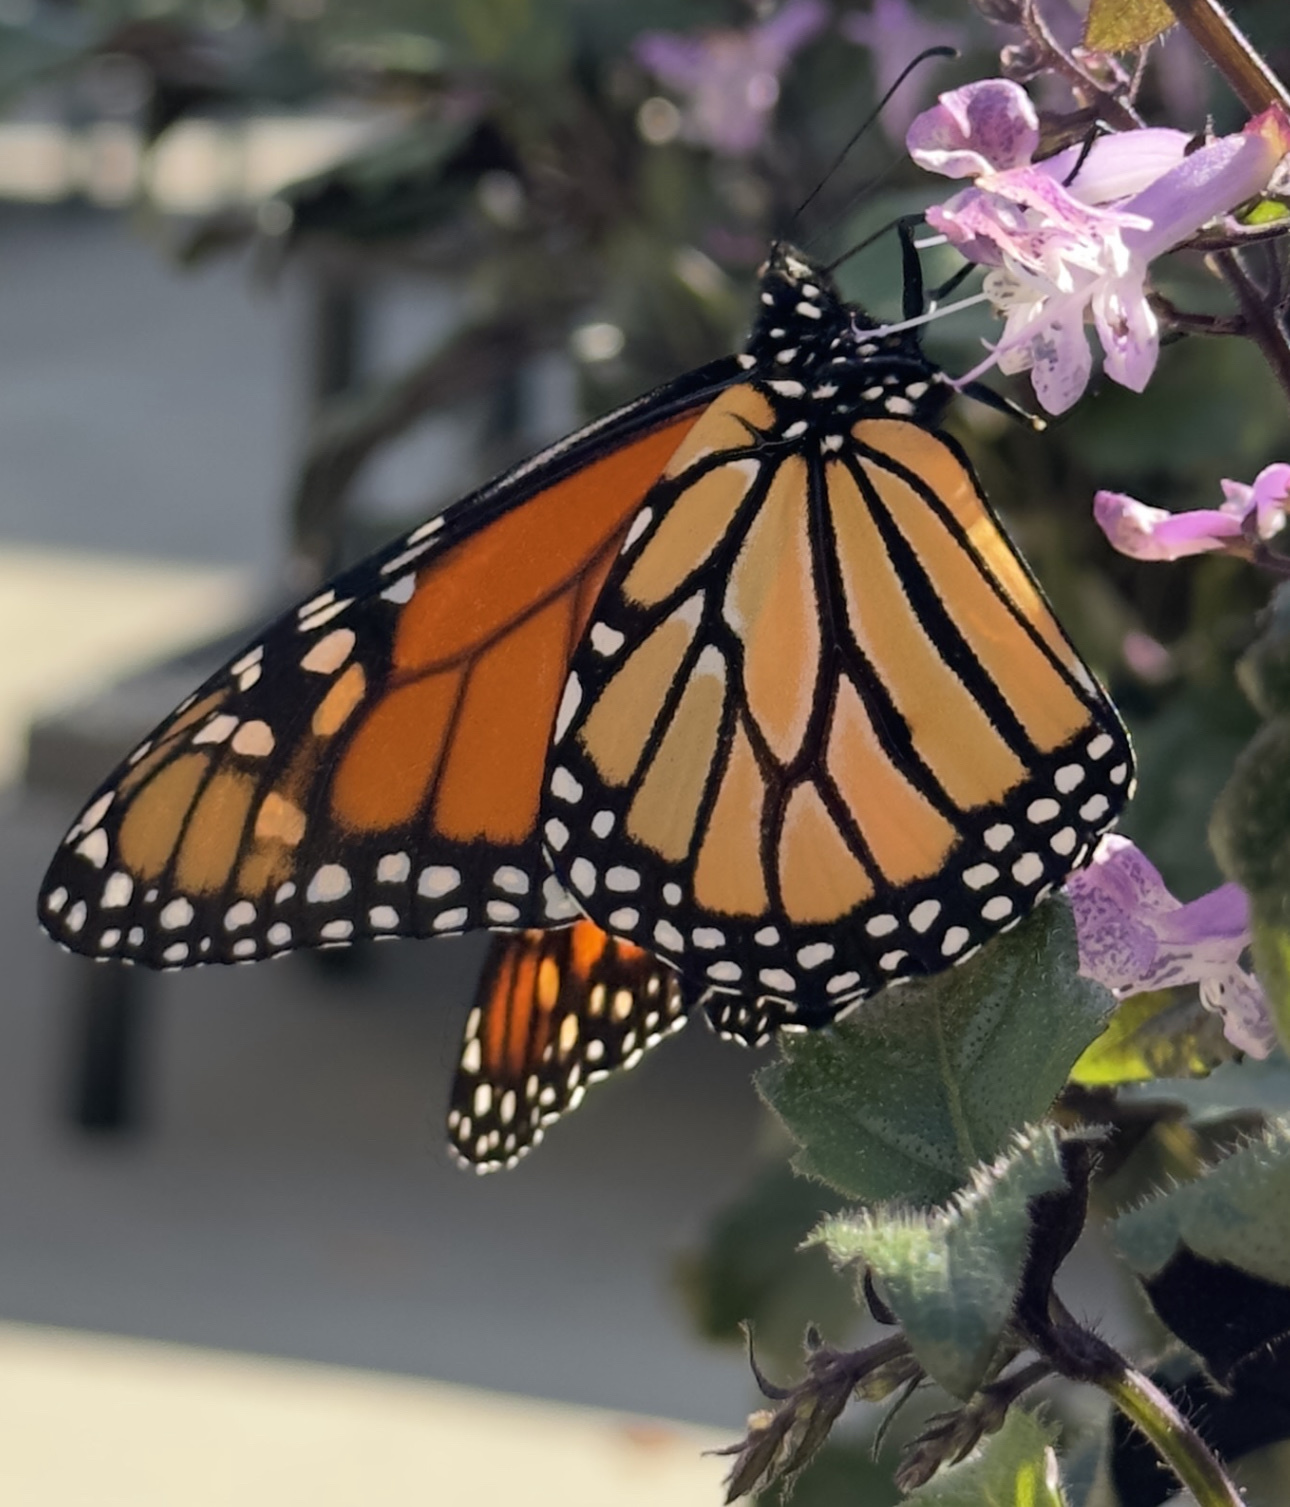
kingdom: Animalia
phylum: Arthropoda
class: Insecta
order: Lepidoptera
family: Nymphalidae
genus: Danaus
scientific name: Danaus plexippus
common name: Monarch
